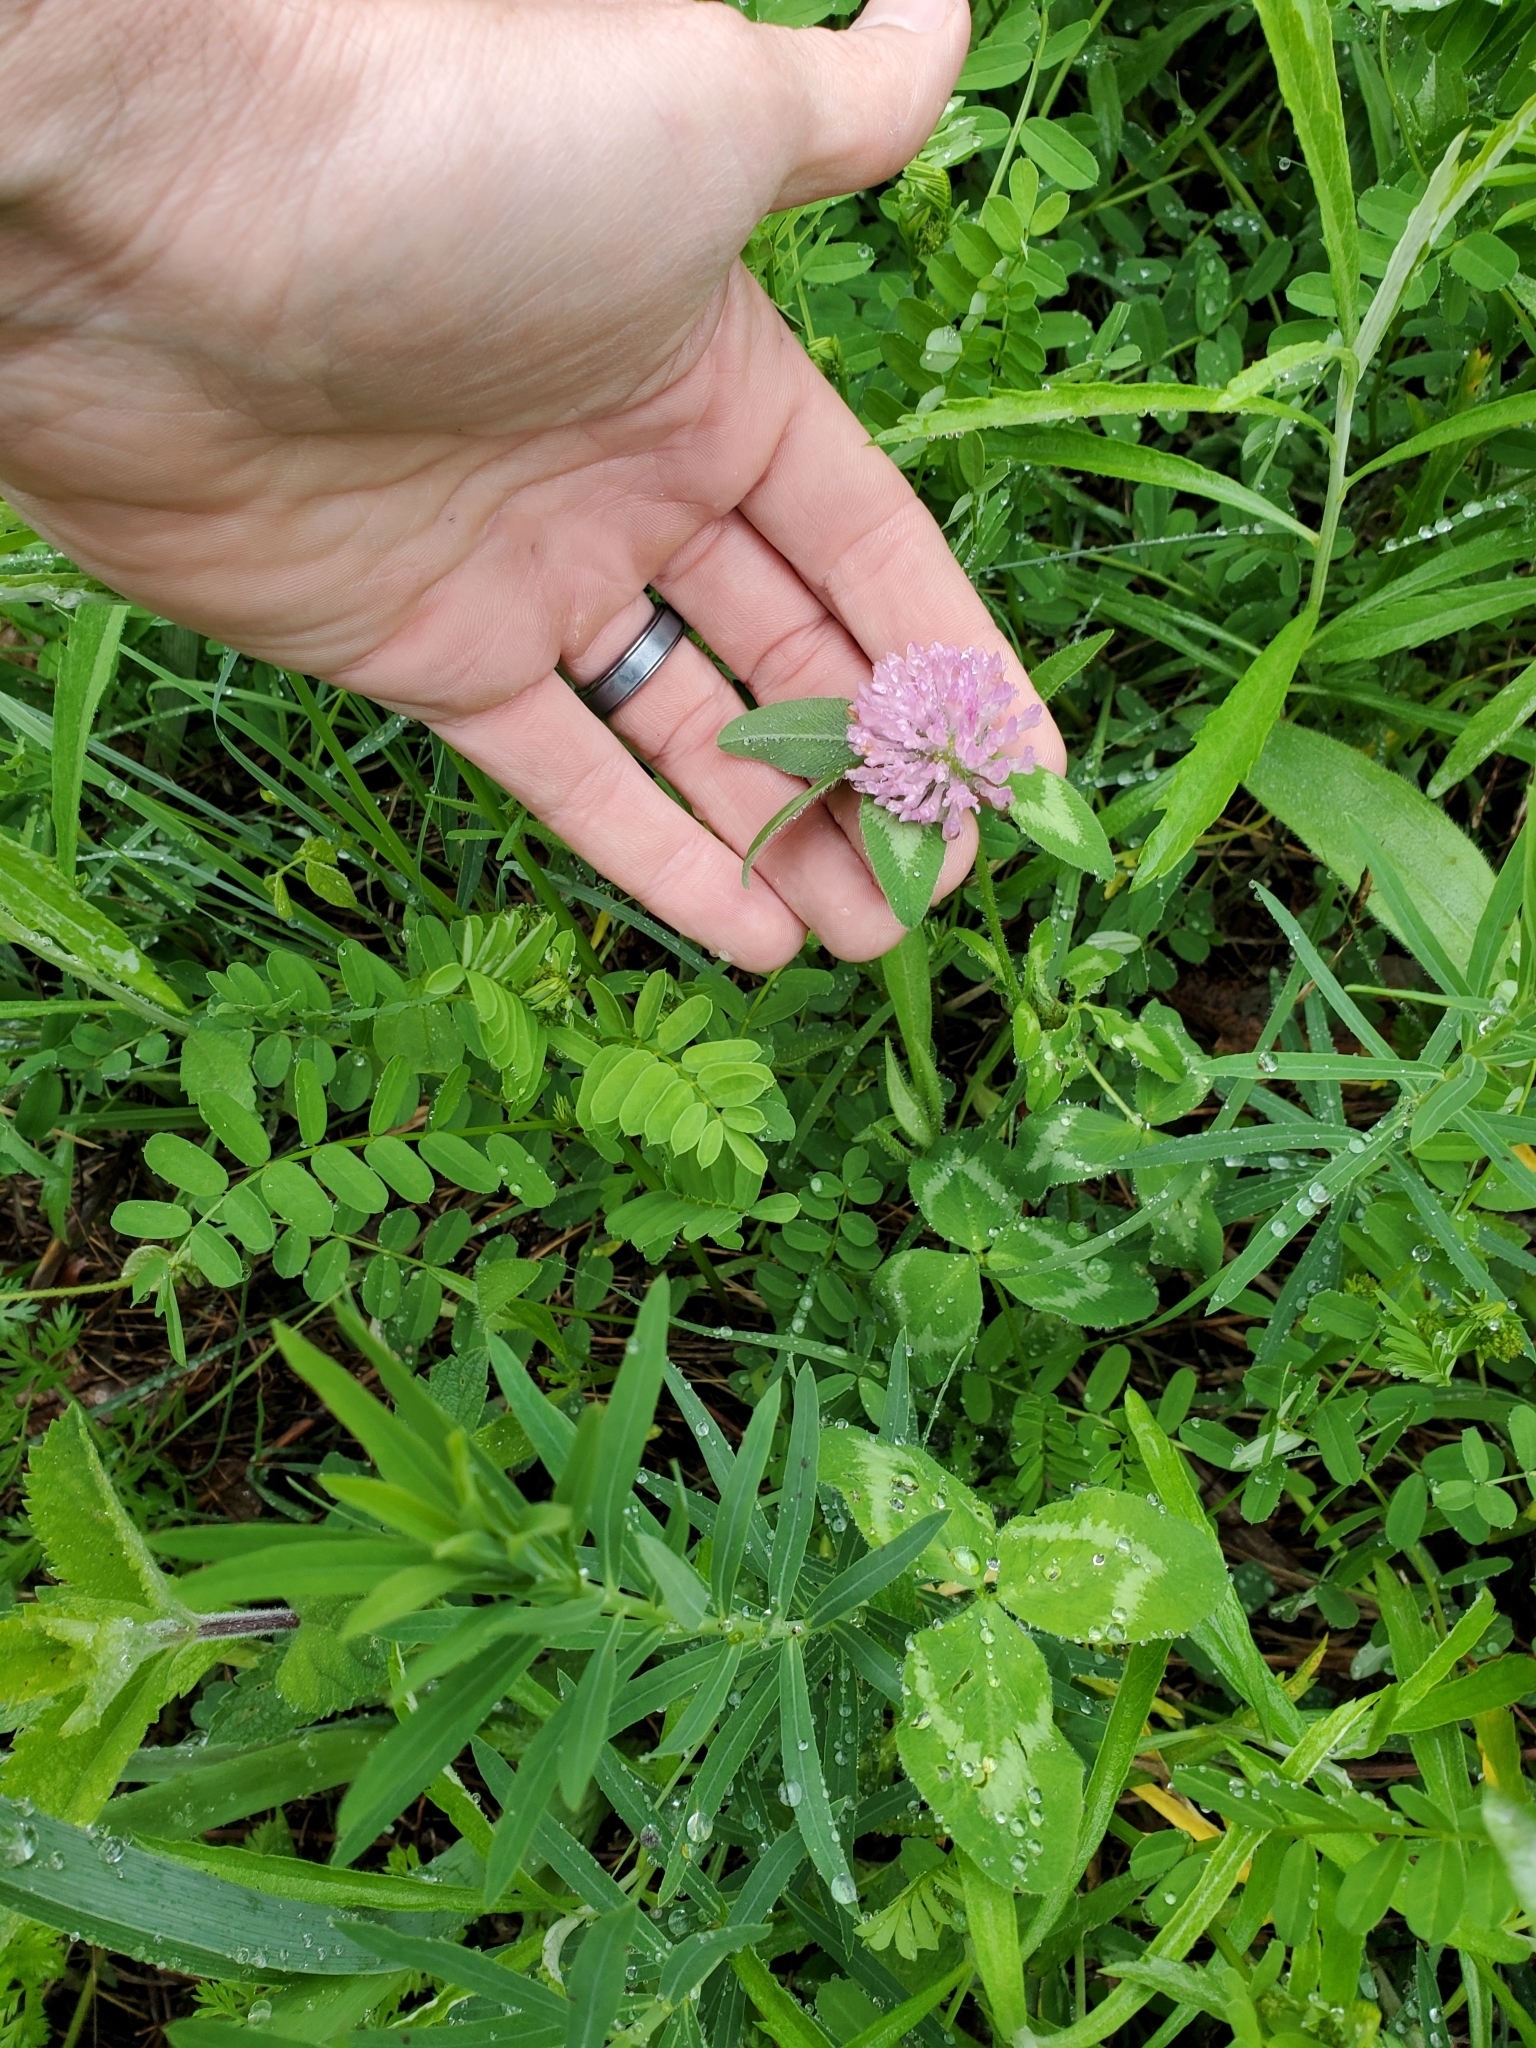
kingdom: Plantae
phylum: Tracheophyta
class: Magnoliopsida
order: Fabales
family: Fabaceae
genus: Trifolium
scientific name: Trifolium pratense
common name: Red clover
